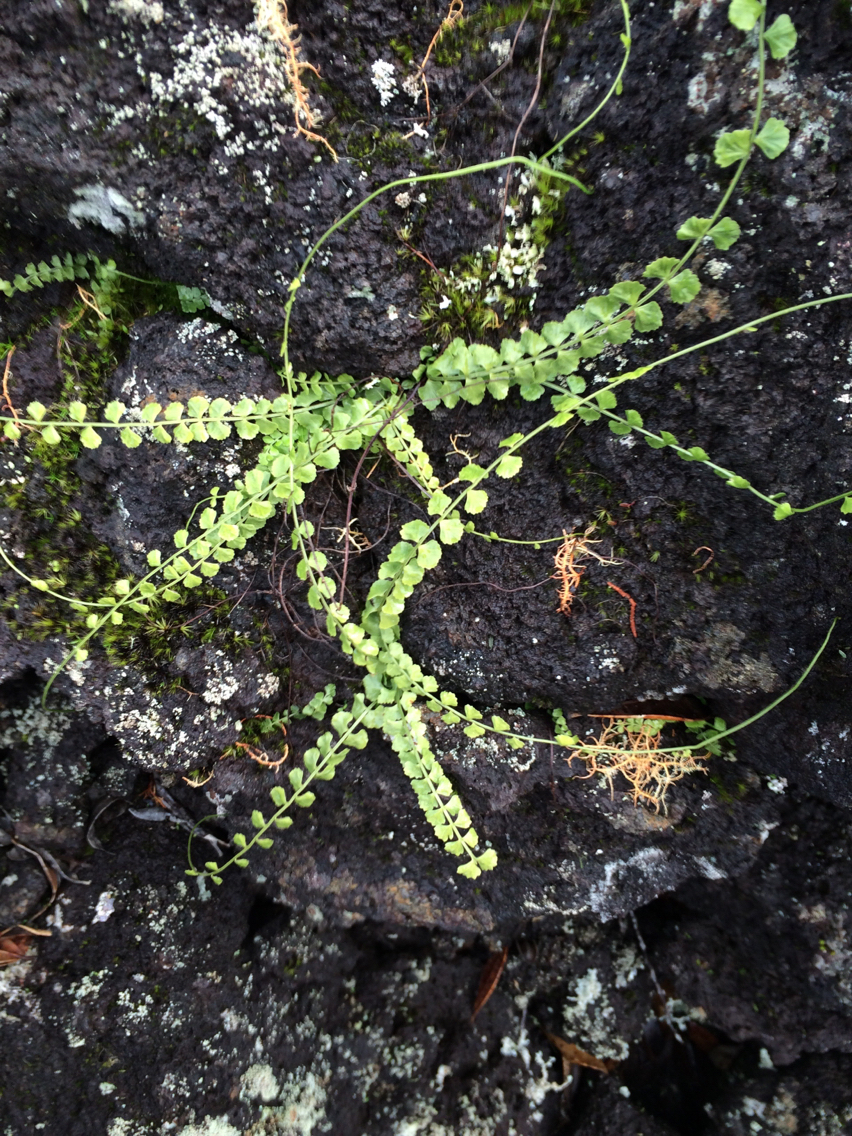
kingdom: Plantae
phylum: Tracheophyta
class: Polypodiopsida
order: Polypodiales
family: Aspleniaceae
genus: Asplenium
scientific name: Asplenium flabellifolium
